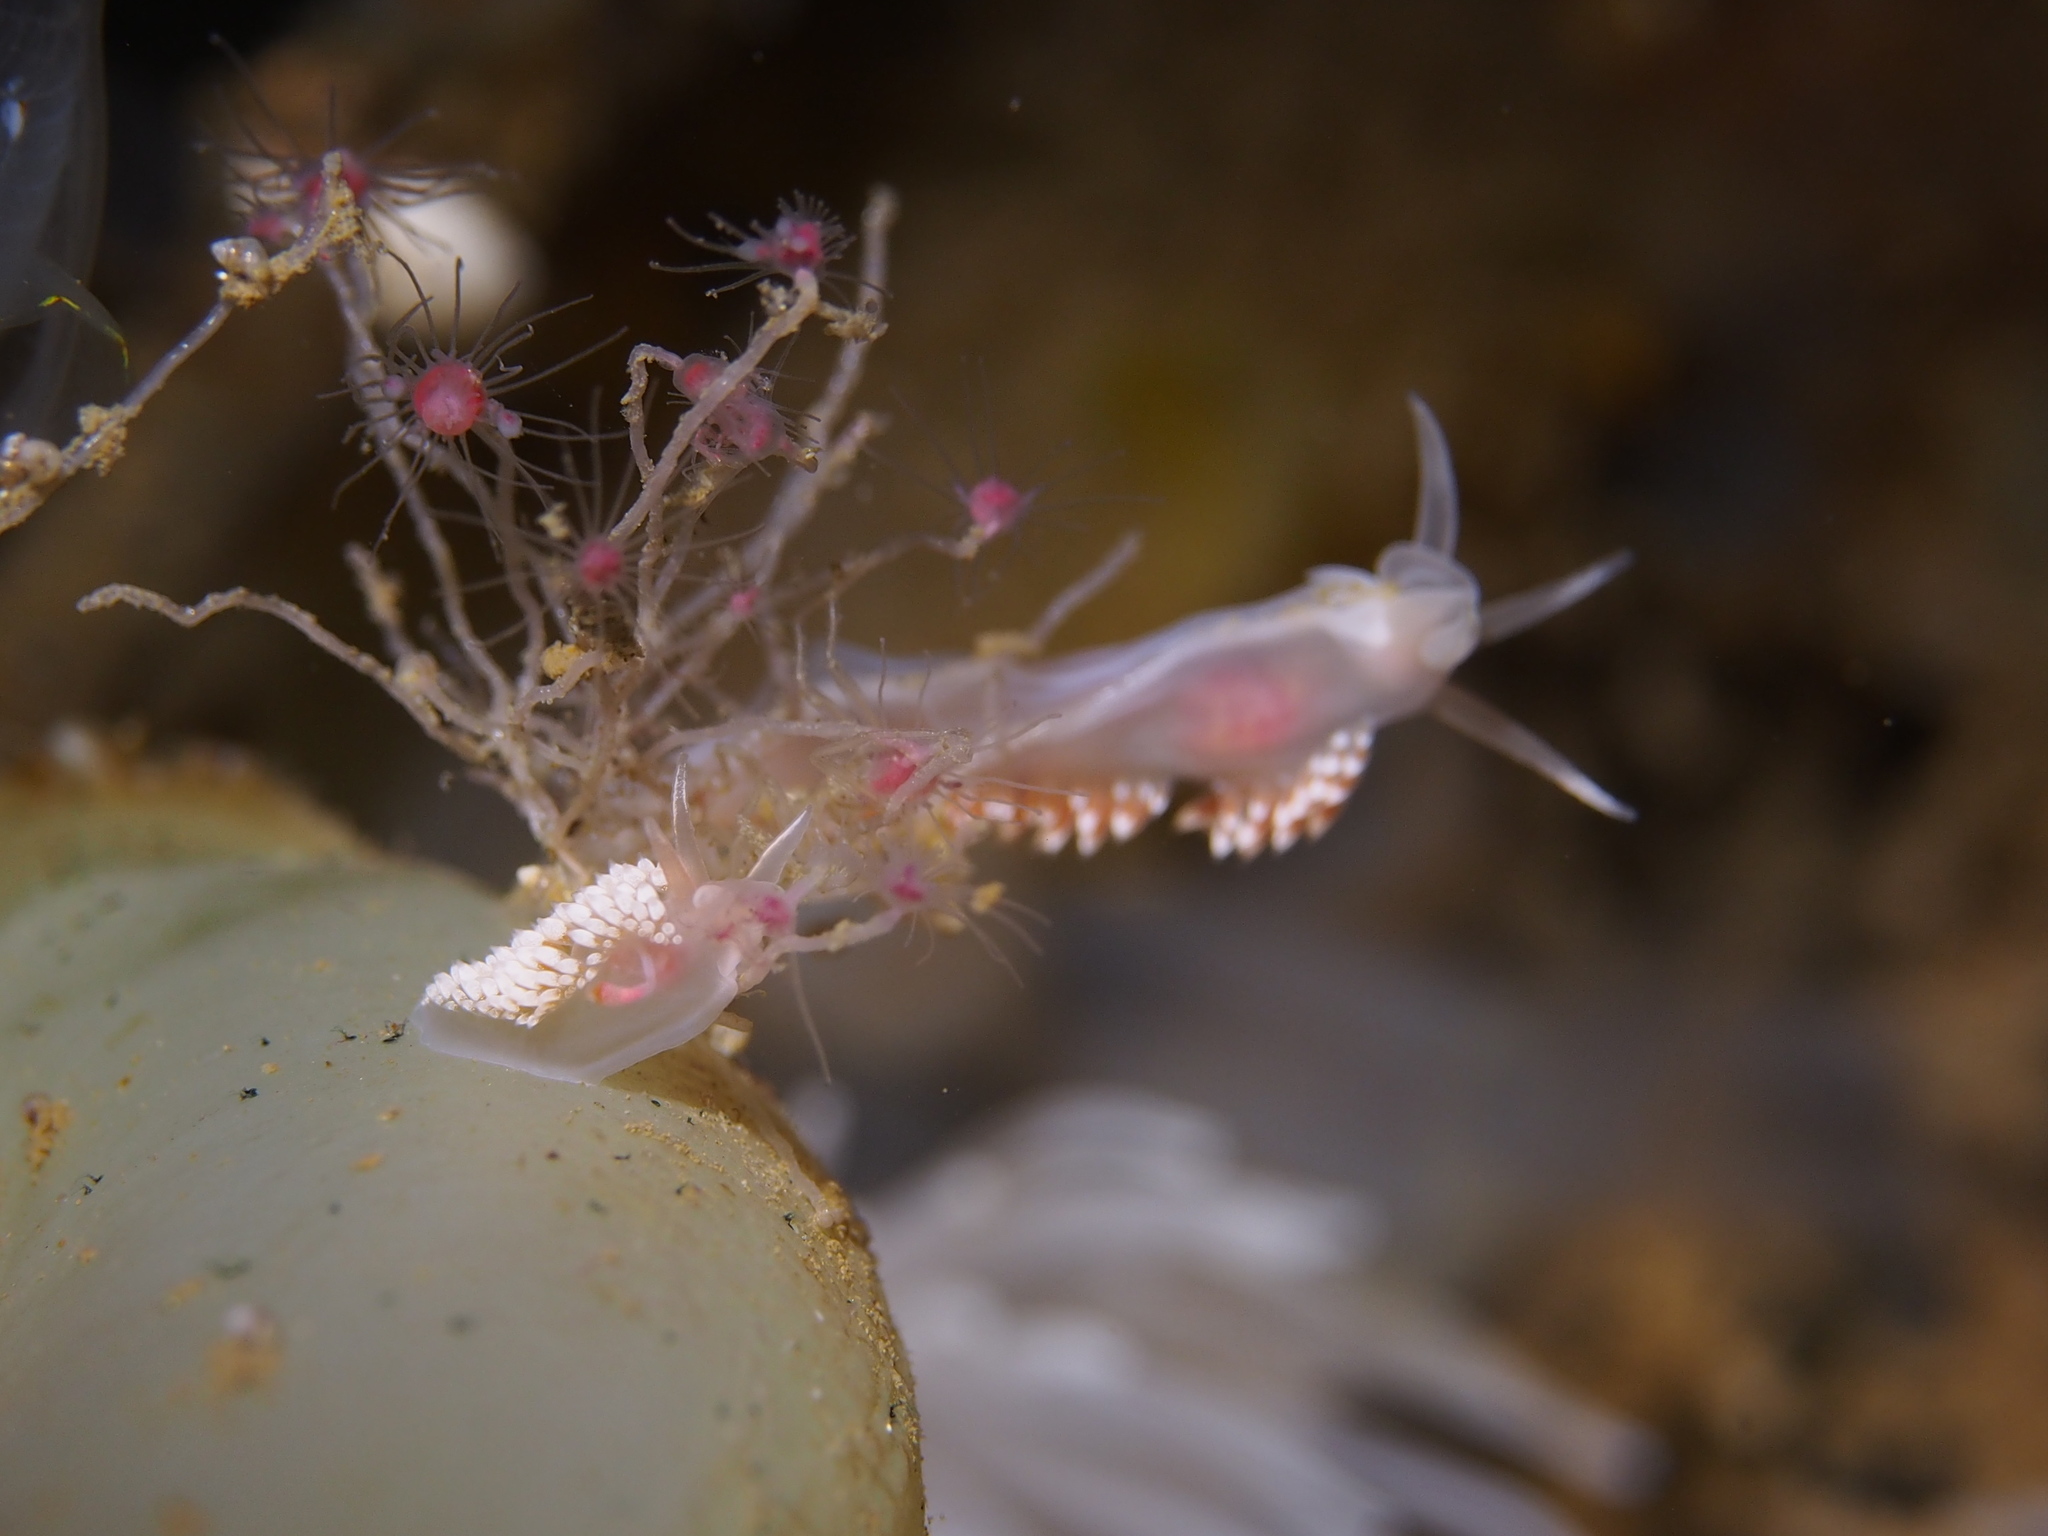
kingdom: Animalia
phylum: Mollusca
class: Gastropoda
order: Nudibranchia
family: Coryphellidae
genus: Coryphella
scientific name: Coryphella verrucosa
